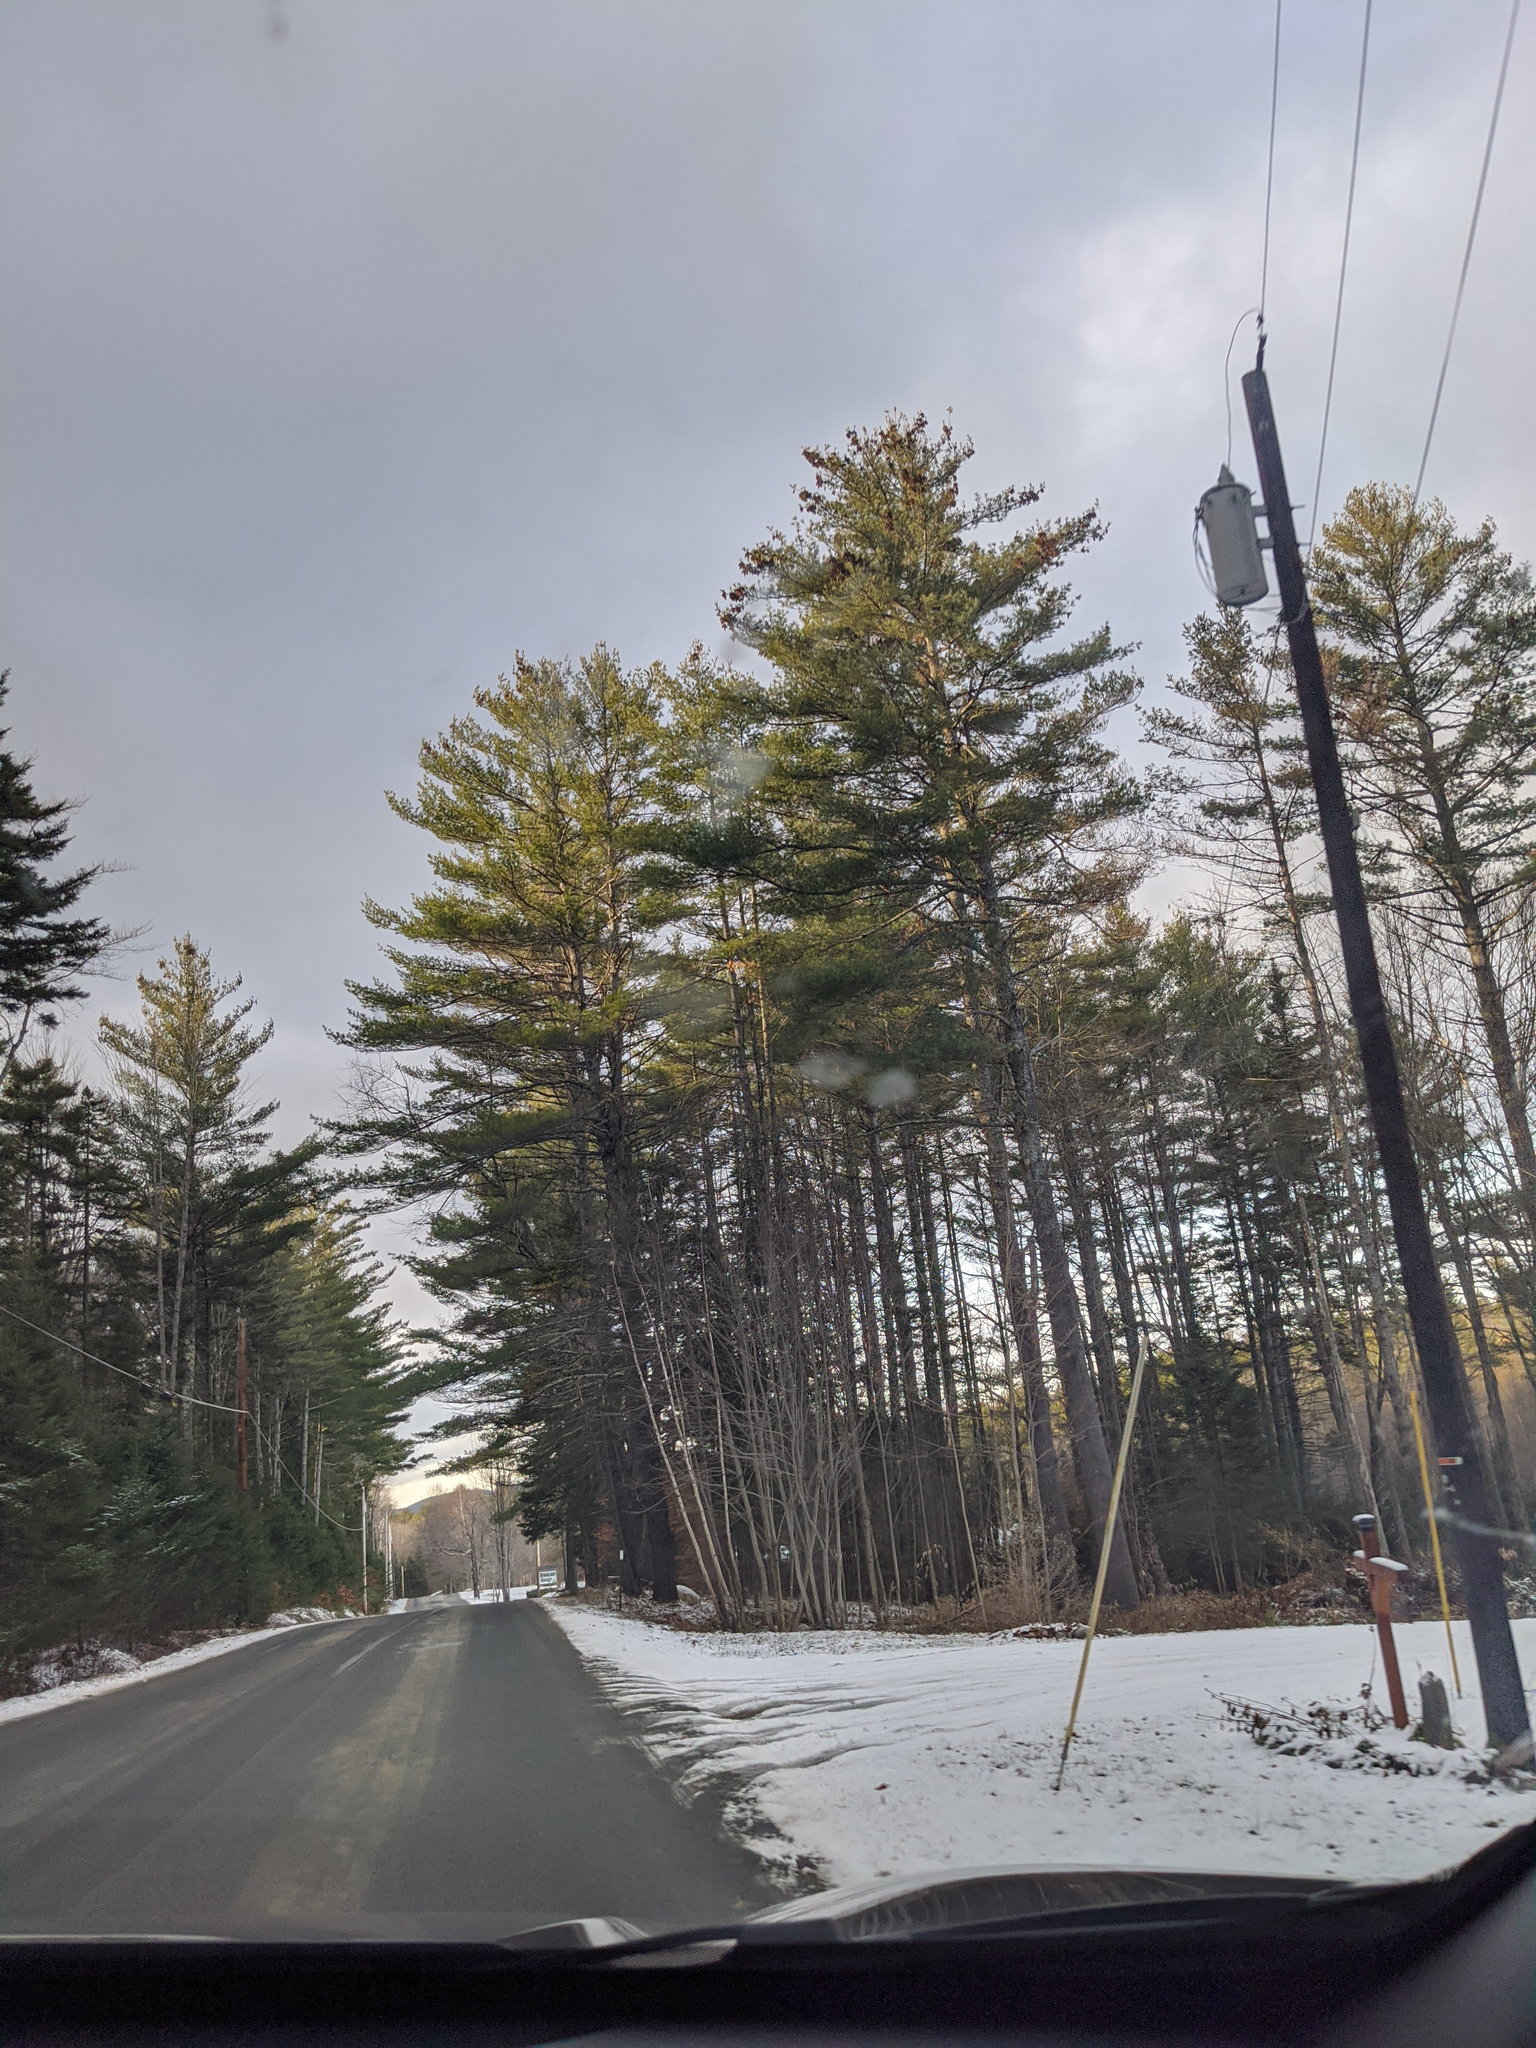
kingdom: Plantae
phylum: Tracheophyta
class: Pinopsida
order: Pinales
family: Pinaceae
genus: Pinus
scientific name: Pinus strobus
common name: Weymouth pine
